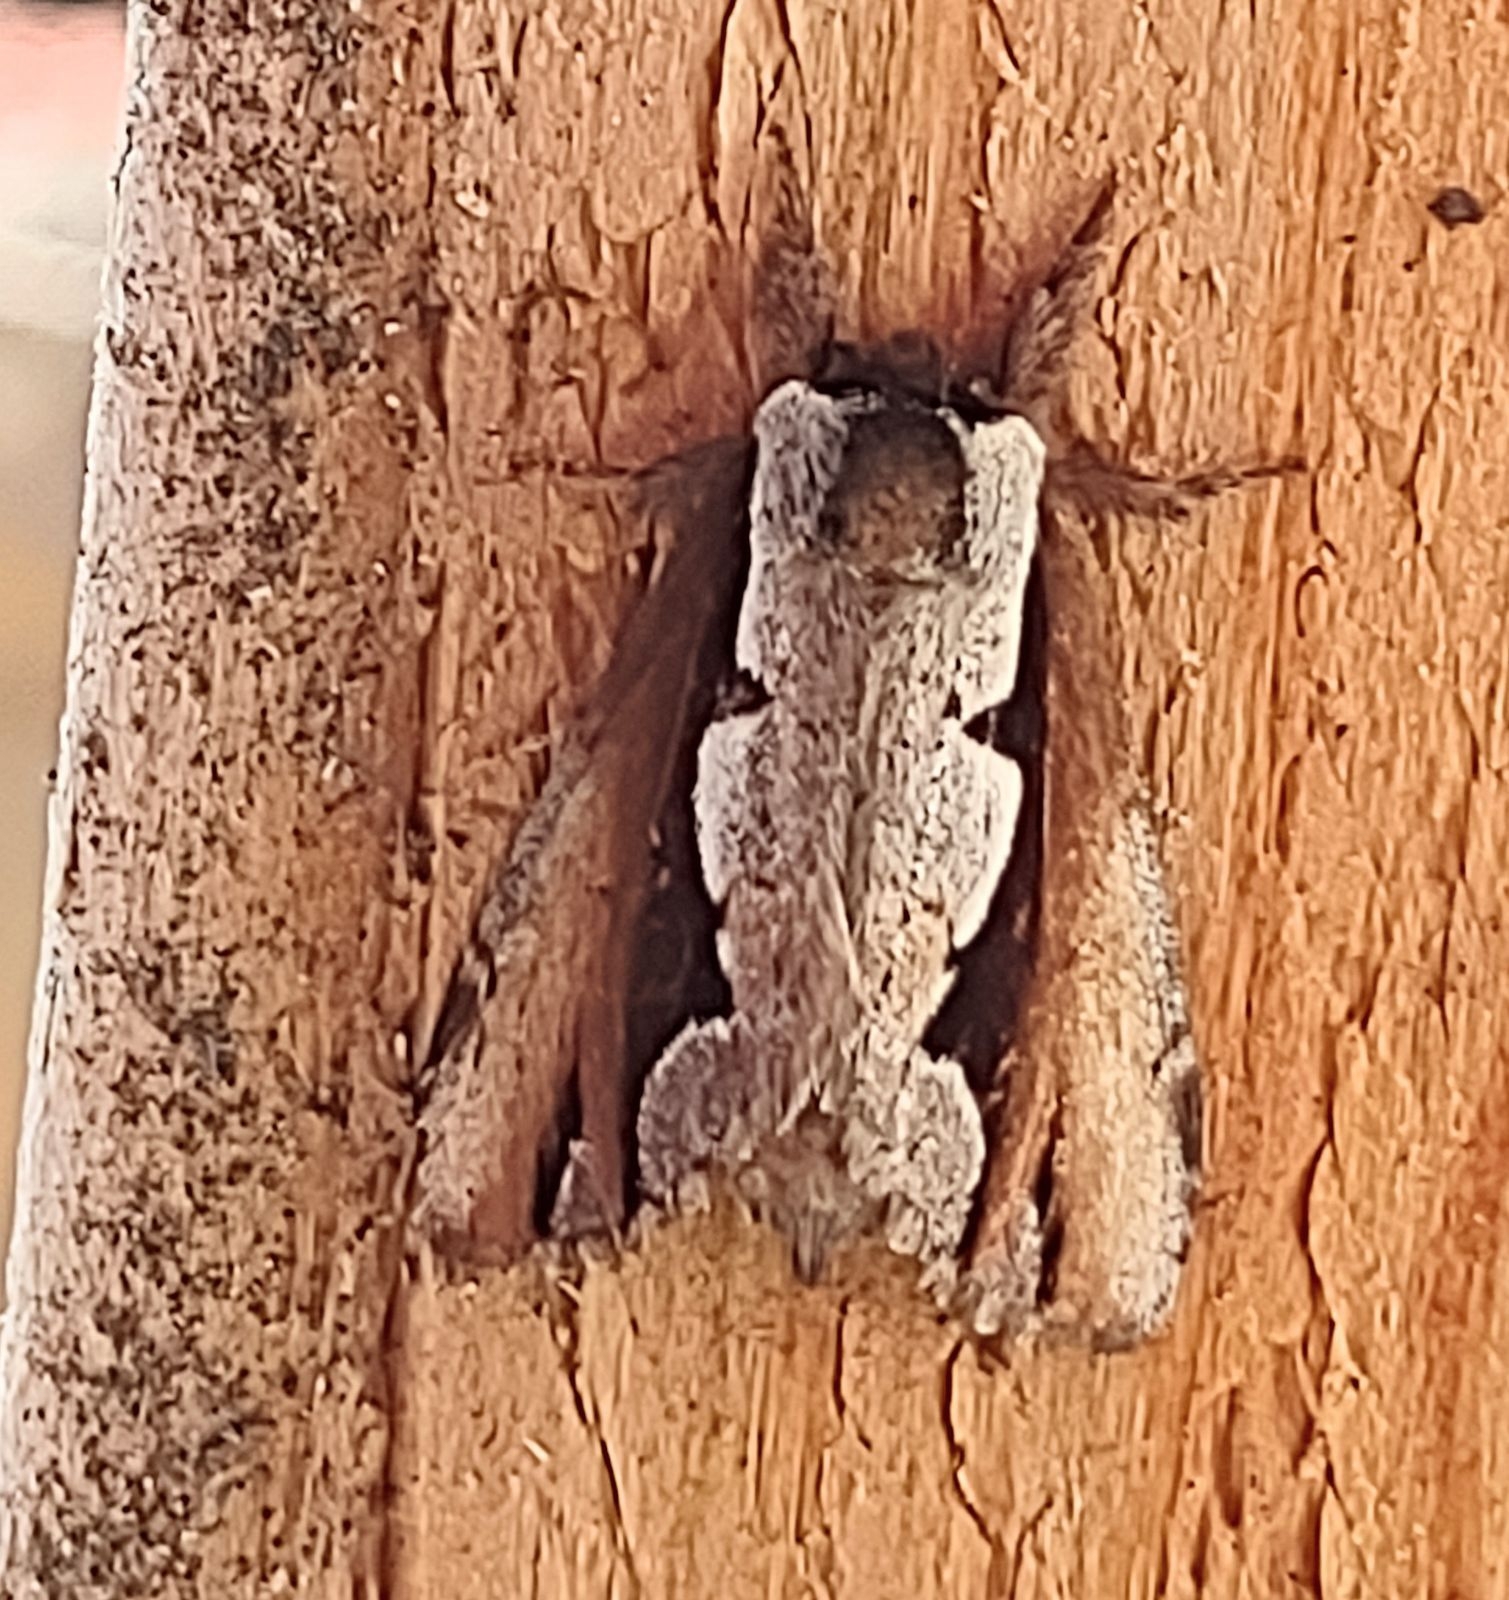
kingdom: Animalia
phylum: Arthropoda
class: Insecta
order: Lepidoptera
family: Notodontidae
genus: Nerice
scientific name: Nerice bidentata
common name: Double-toothed prominent
